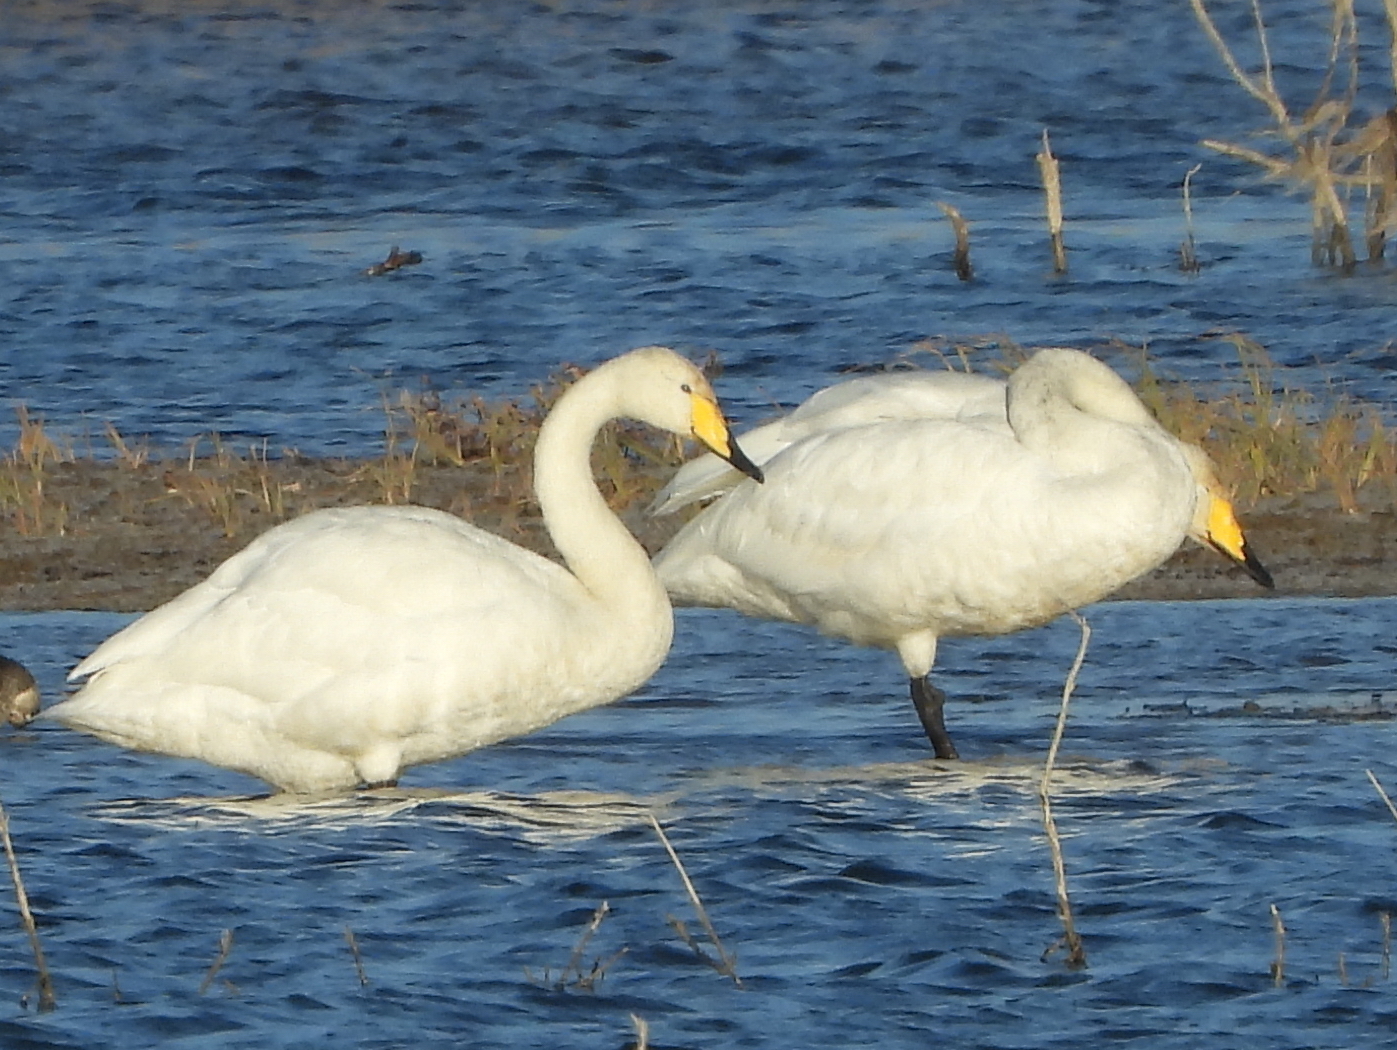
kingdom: Animalia
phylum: Chordata
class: Aves
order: Anseriformes
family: Anatidae
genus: Cygnus
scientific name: Cygnus cygnus
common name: Whooper swan
